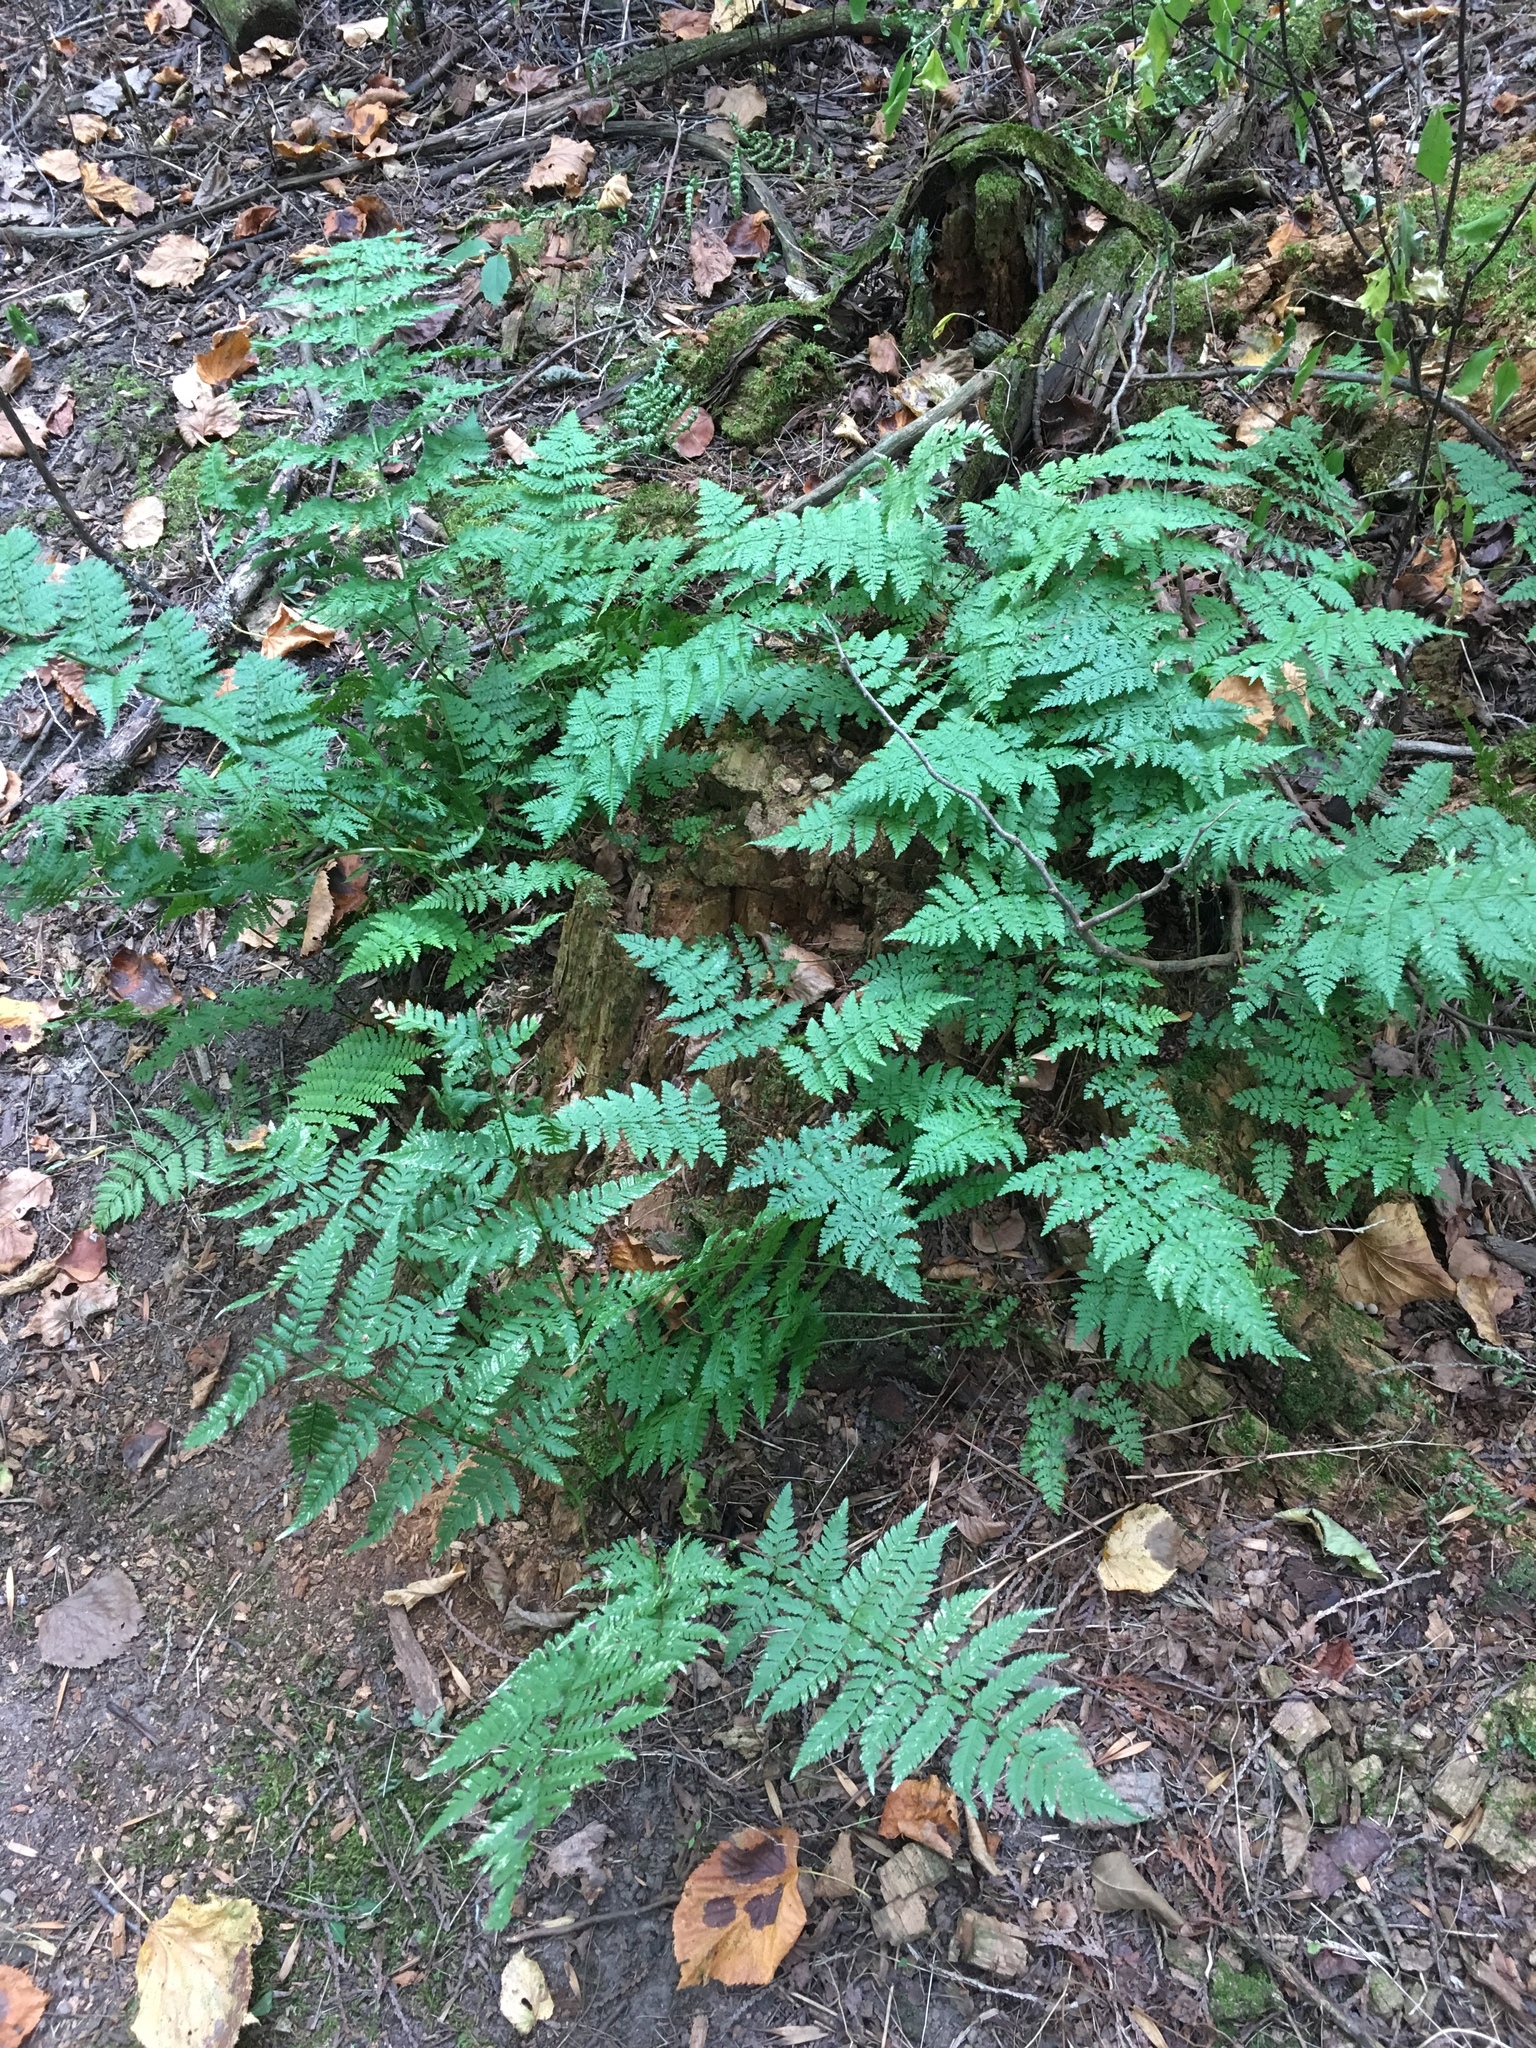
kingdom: Plantae
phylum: Tracheophyta
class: Polypodiopsida
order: Polypodiales
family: Dryopteridaceae
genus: Dryopteris
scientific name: Dryopteris carthusiana
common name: Narrow buckler-fern
